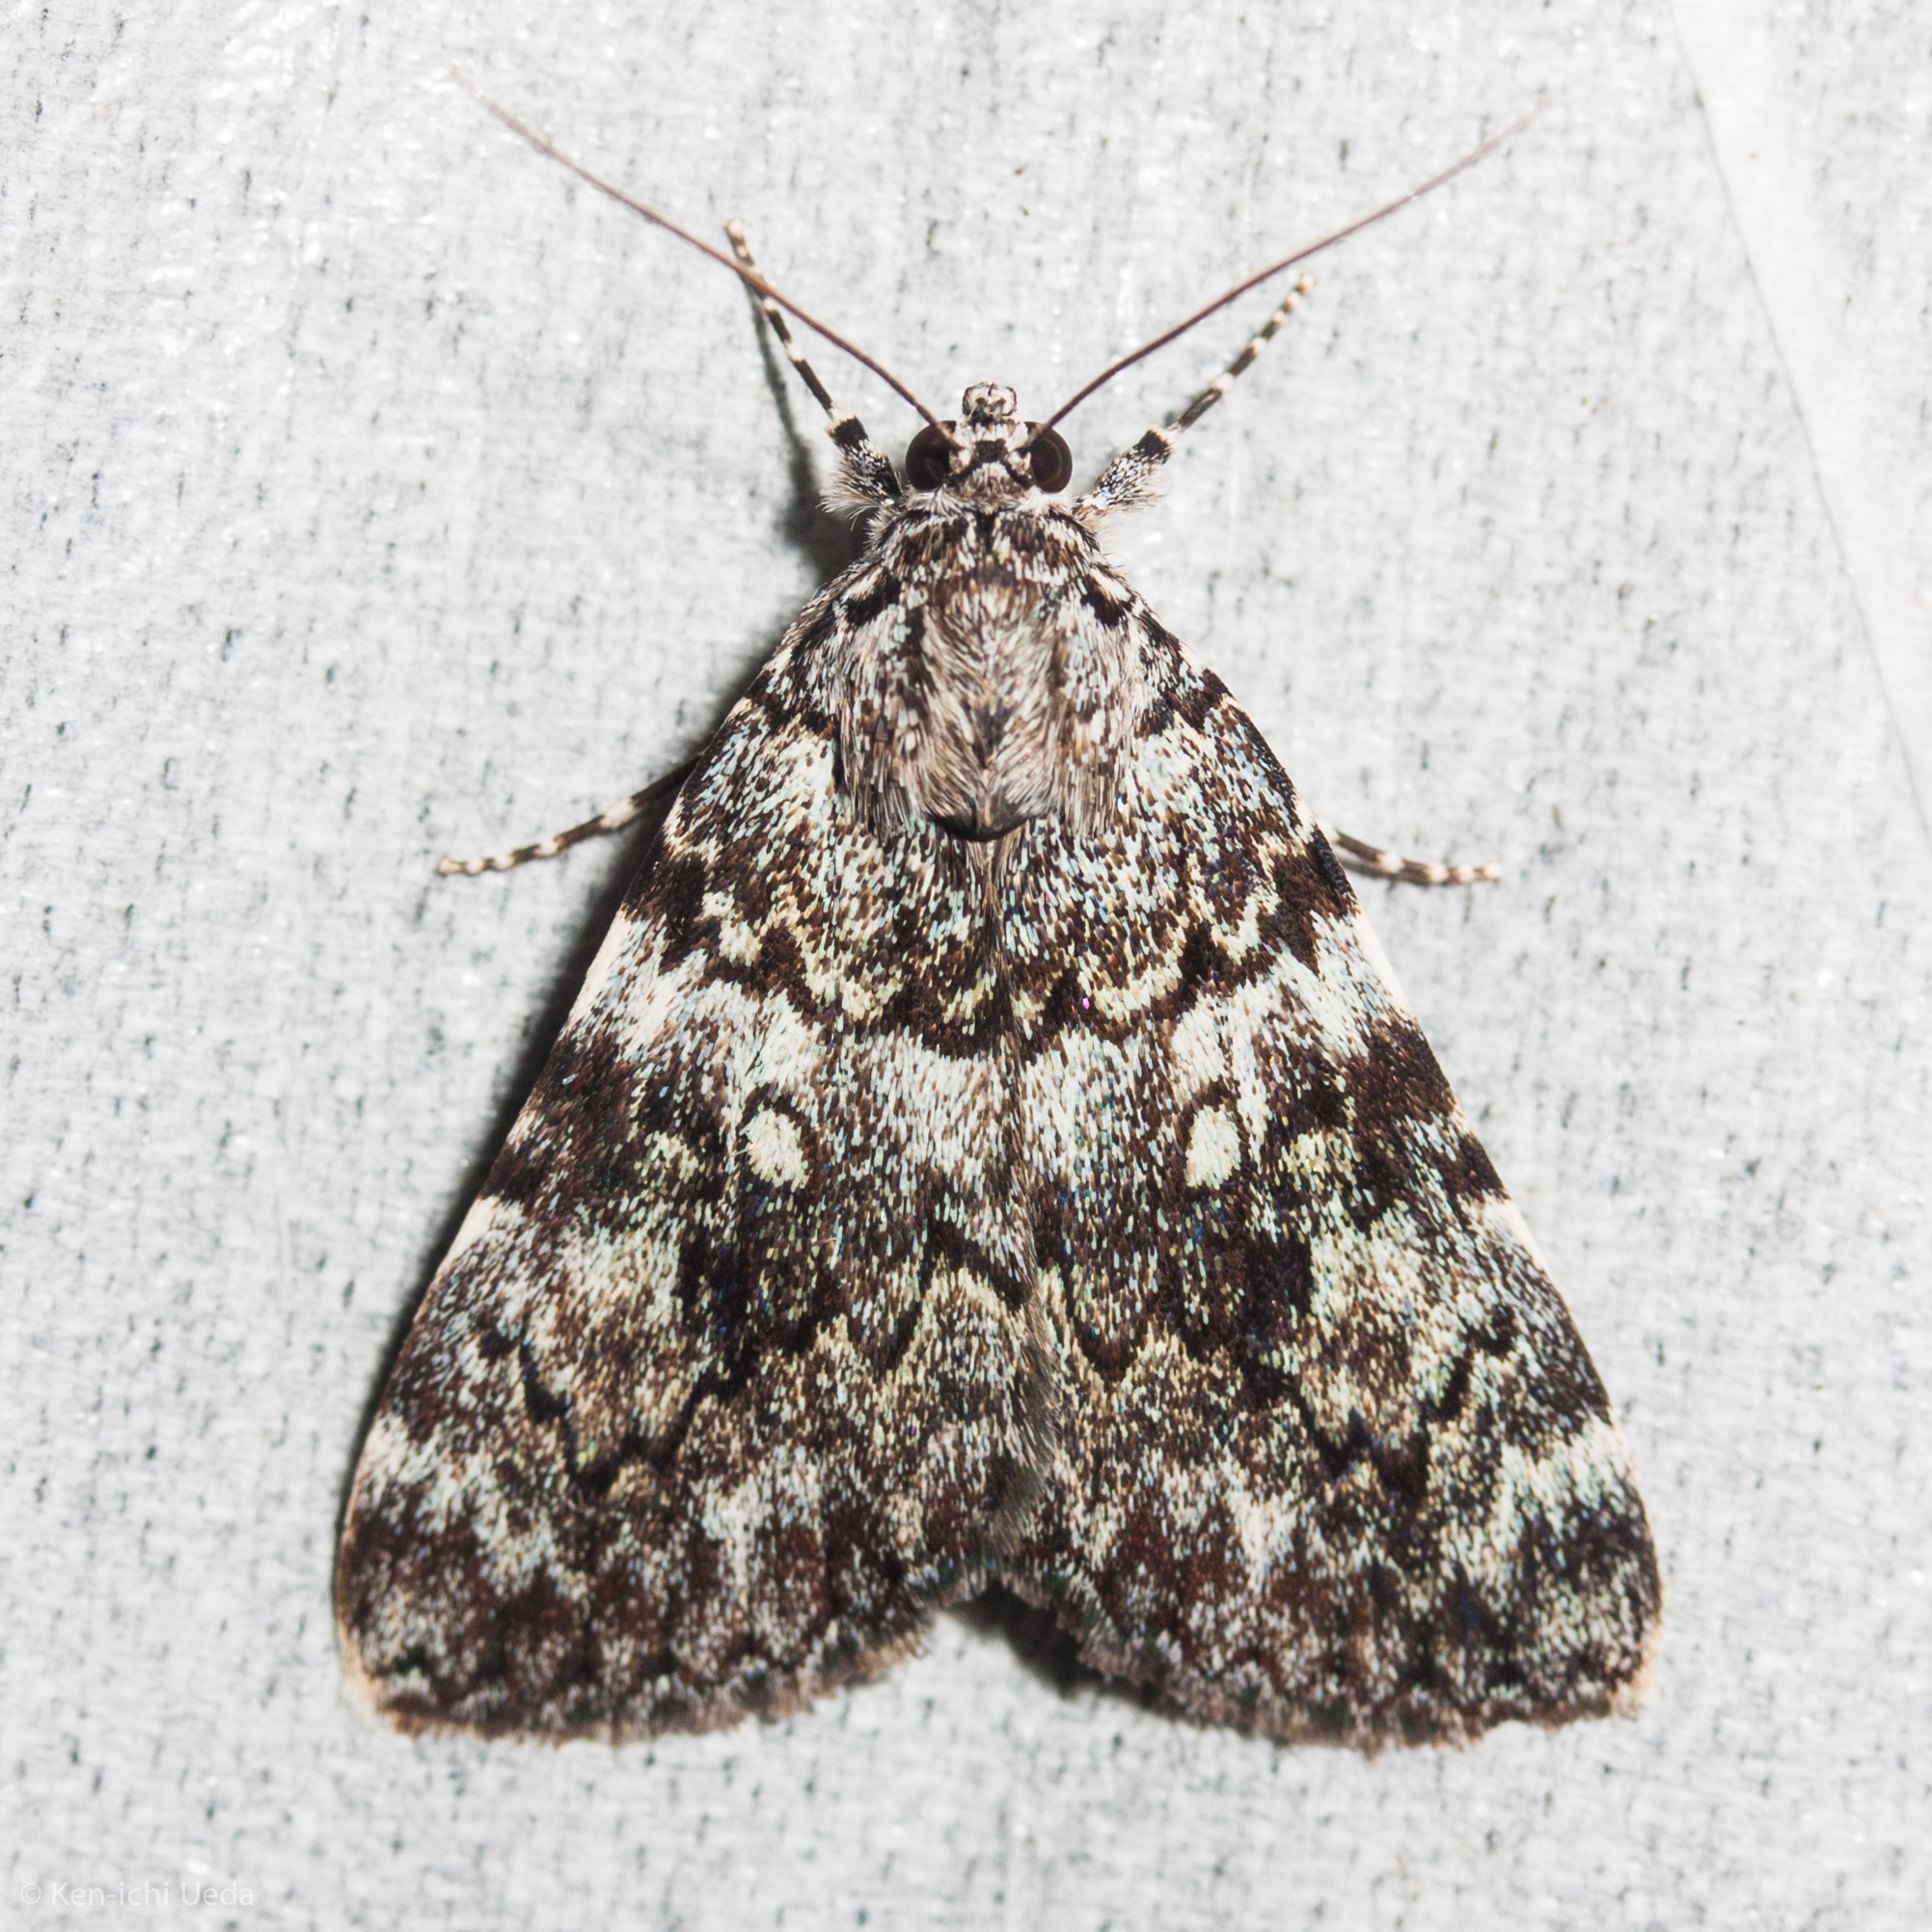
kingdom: Animalia
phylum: Arthropoda
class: Insecta
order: Lepidoptera
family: Erebidae
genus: Catocala
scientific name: Catocala lineella
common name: Little lined underwing
